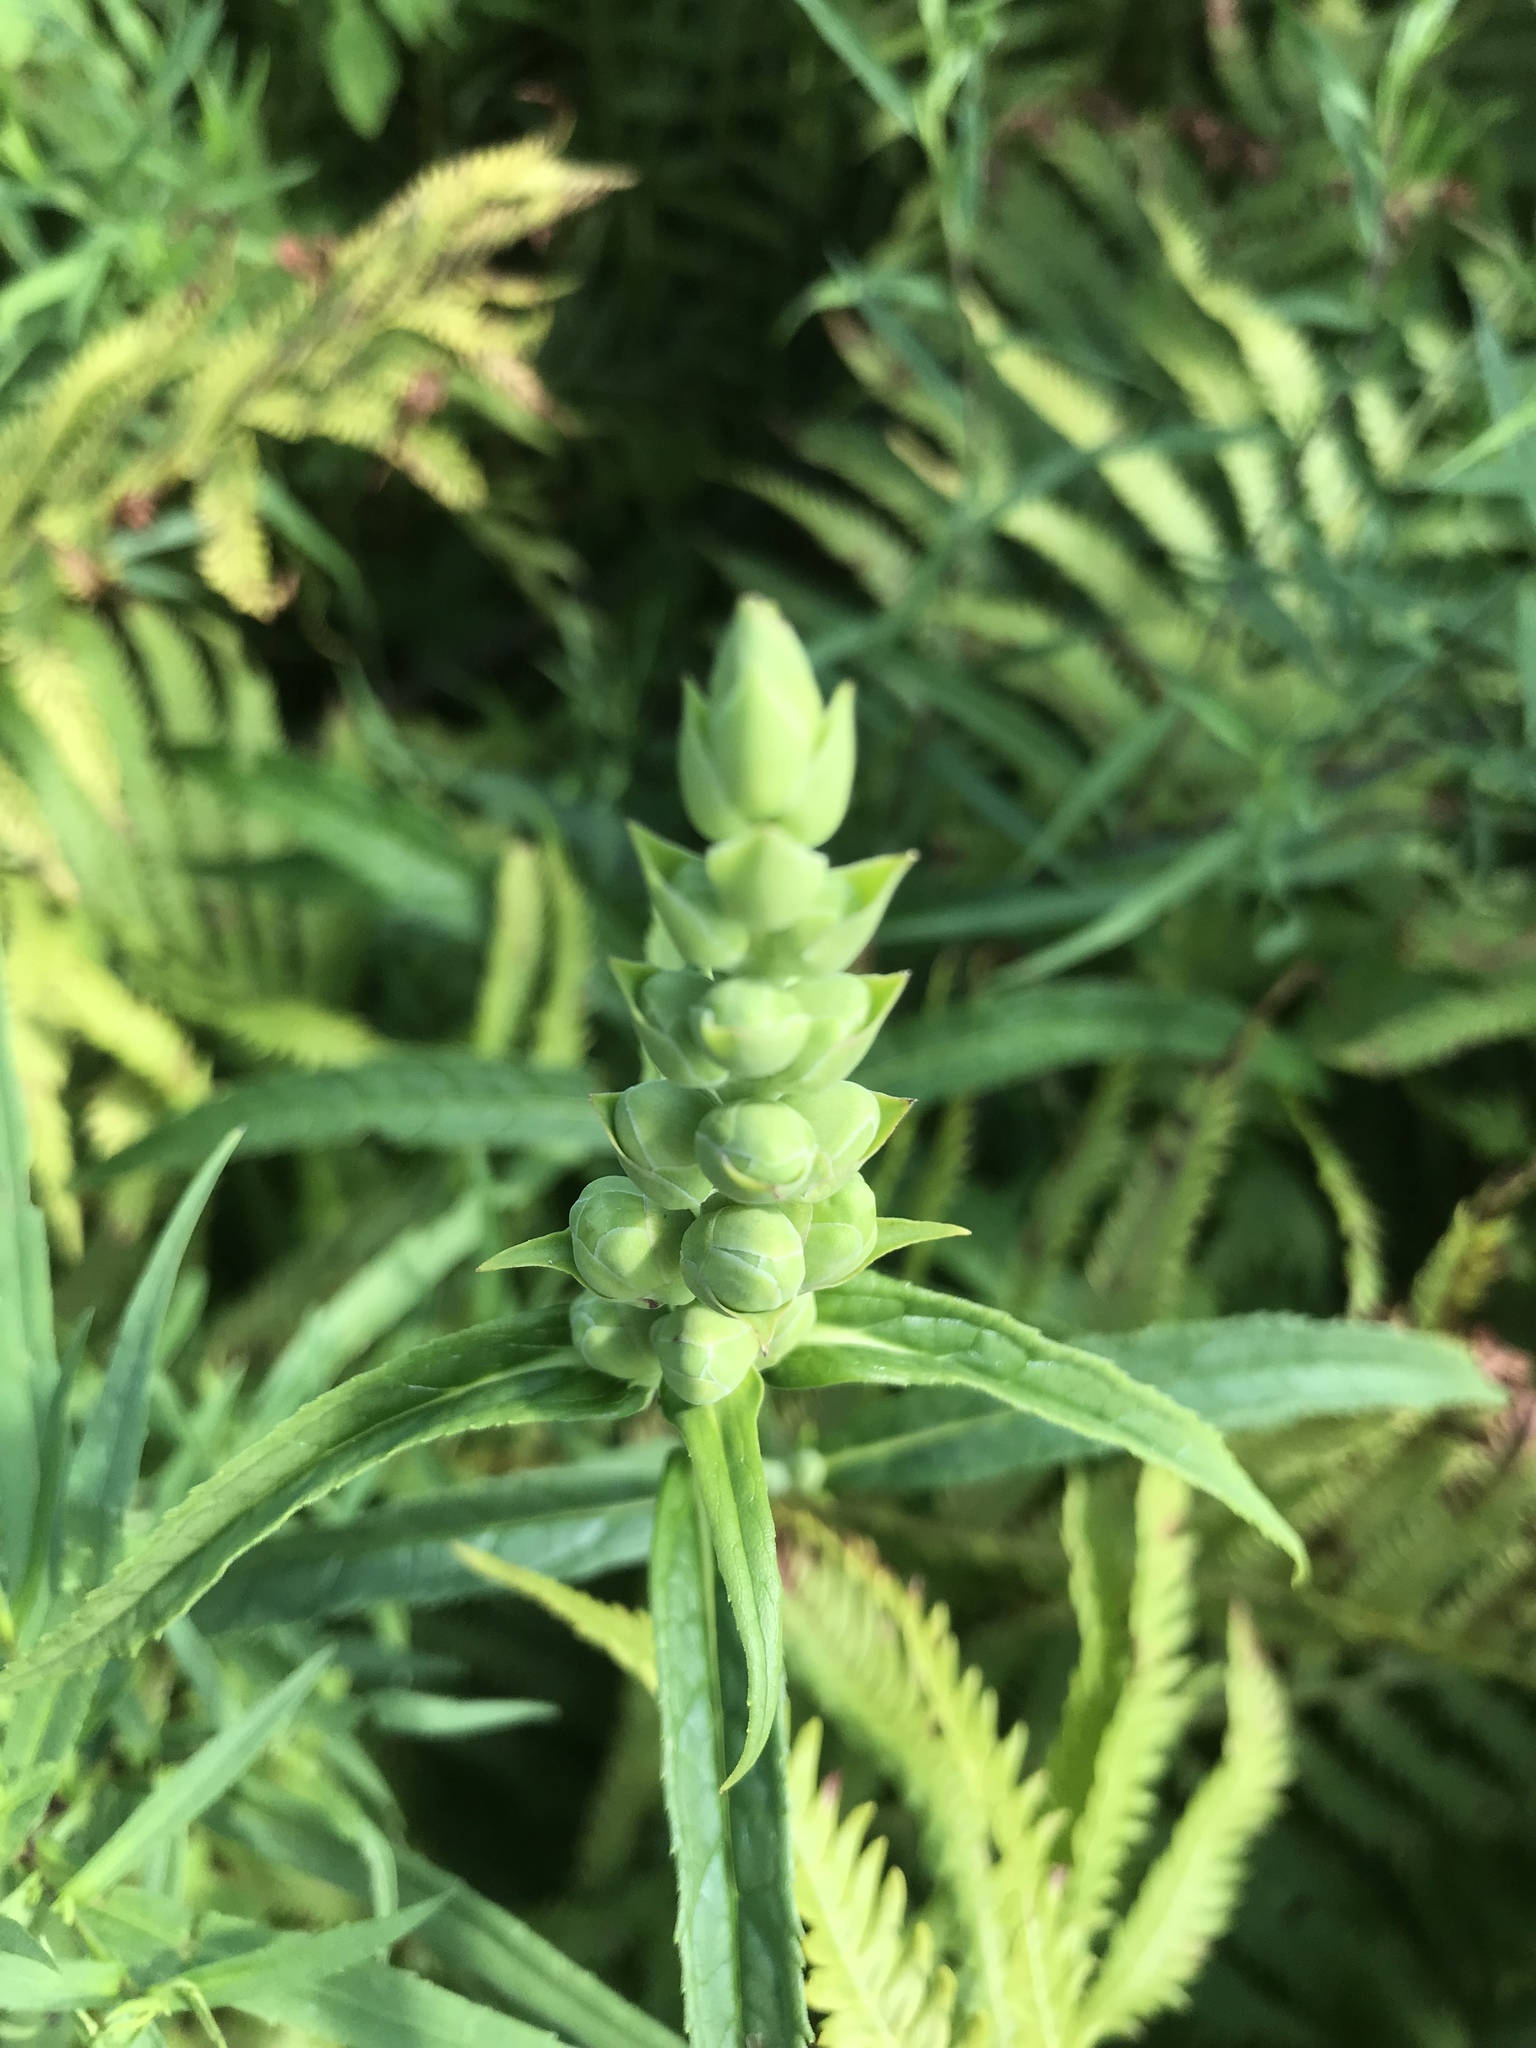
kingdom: Plantae
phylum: Tracheophyta
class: Magnoliopsida
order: Lamiales
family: Plantaginaceae
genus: Chelone
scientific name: Chelone glabra
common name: Snakehead
